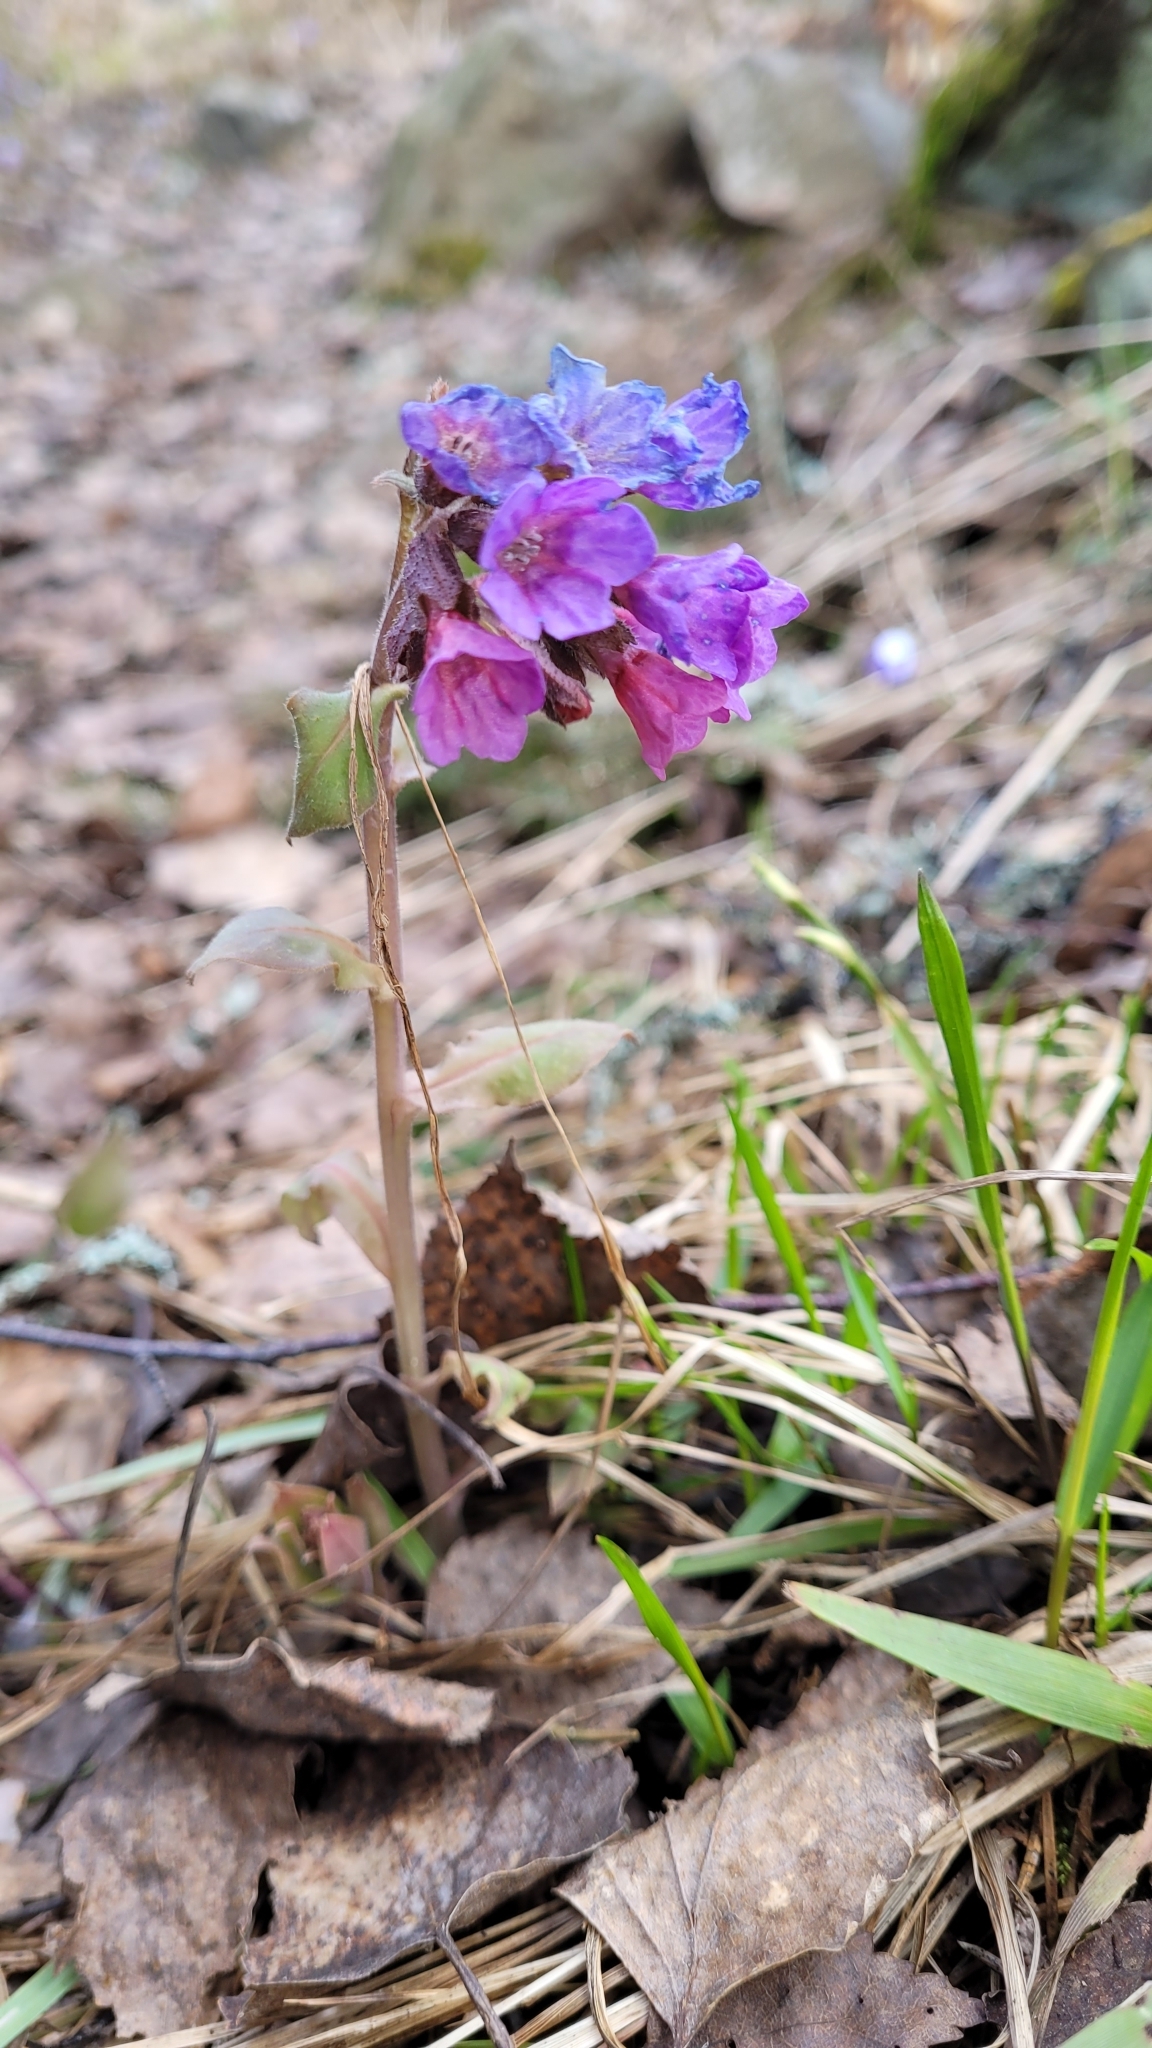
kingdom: Plantae
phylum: Tracheophyta
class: Magnoliopsida
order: Boraginales
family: Boraginaceae
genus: Pulmonaria
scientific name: Pulmonaria obscura
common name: Suffolk lungwort
